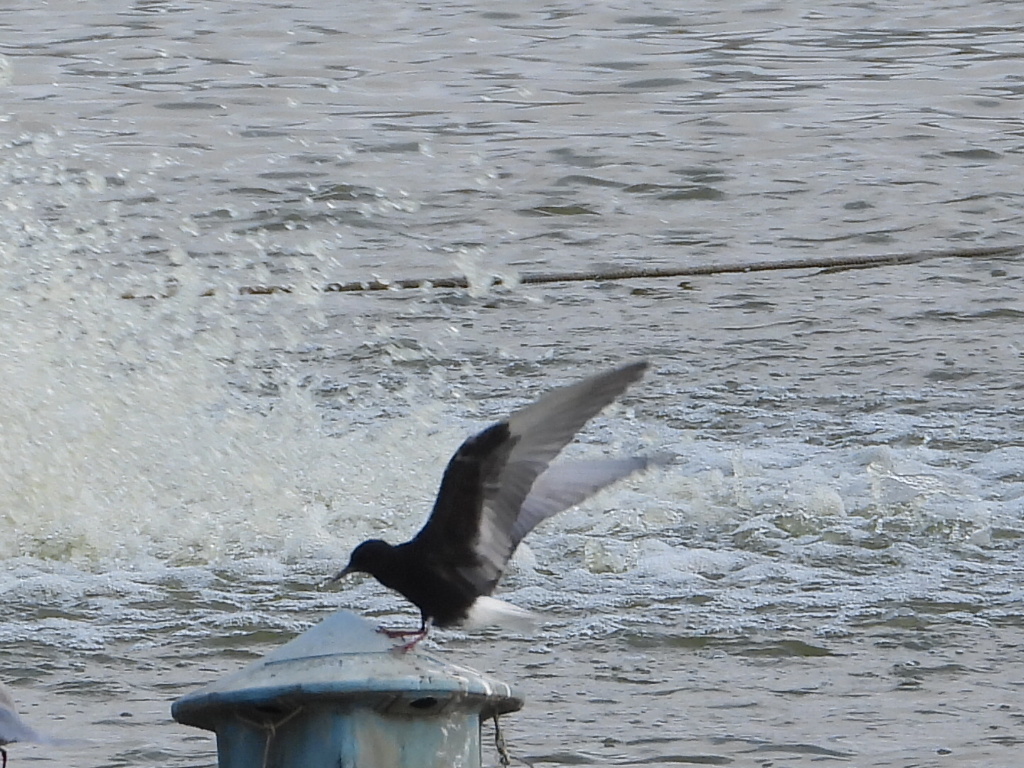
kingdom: Animalia
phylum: Chordata
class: Aves
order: Charadriiformes
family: Laridae
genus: Chlidonias
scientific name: Chlidonias leucopterus
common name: White-winged tern
